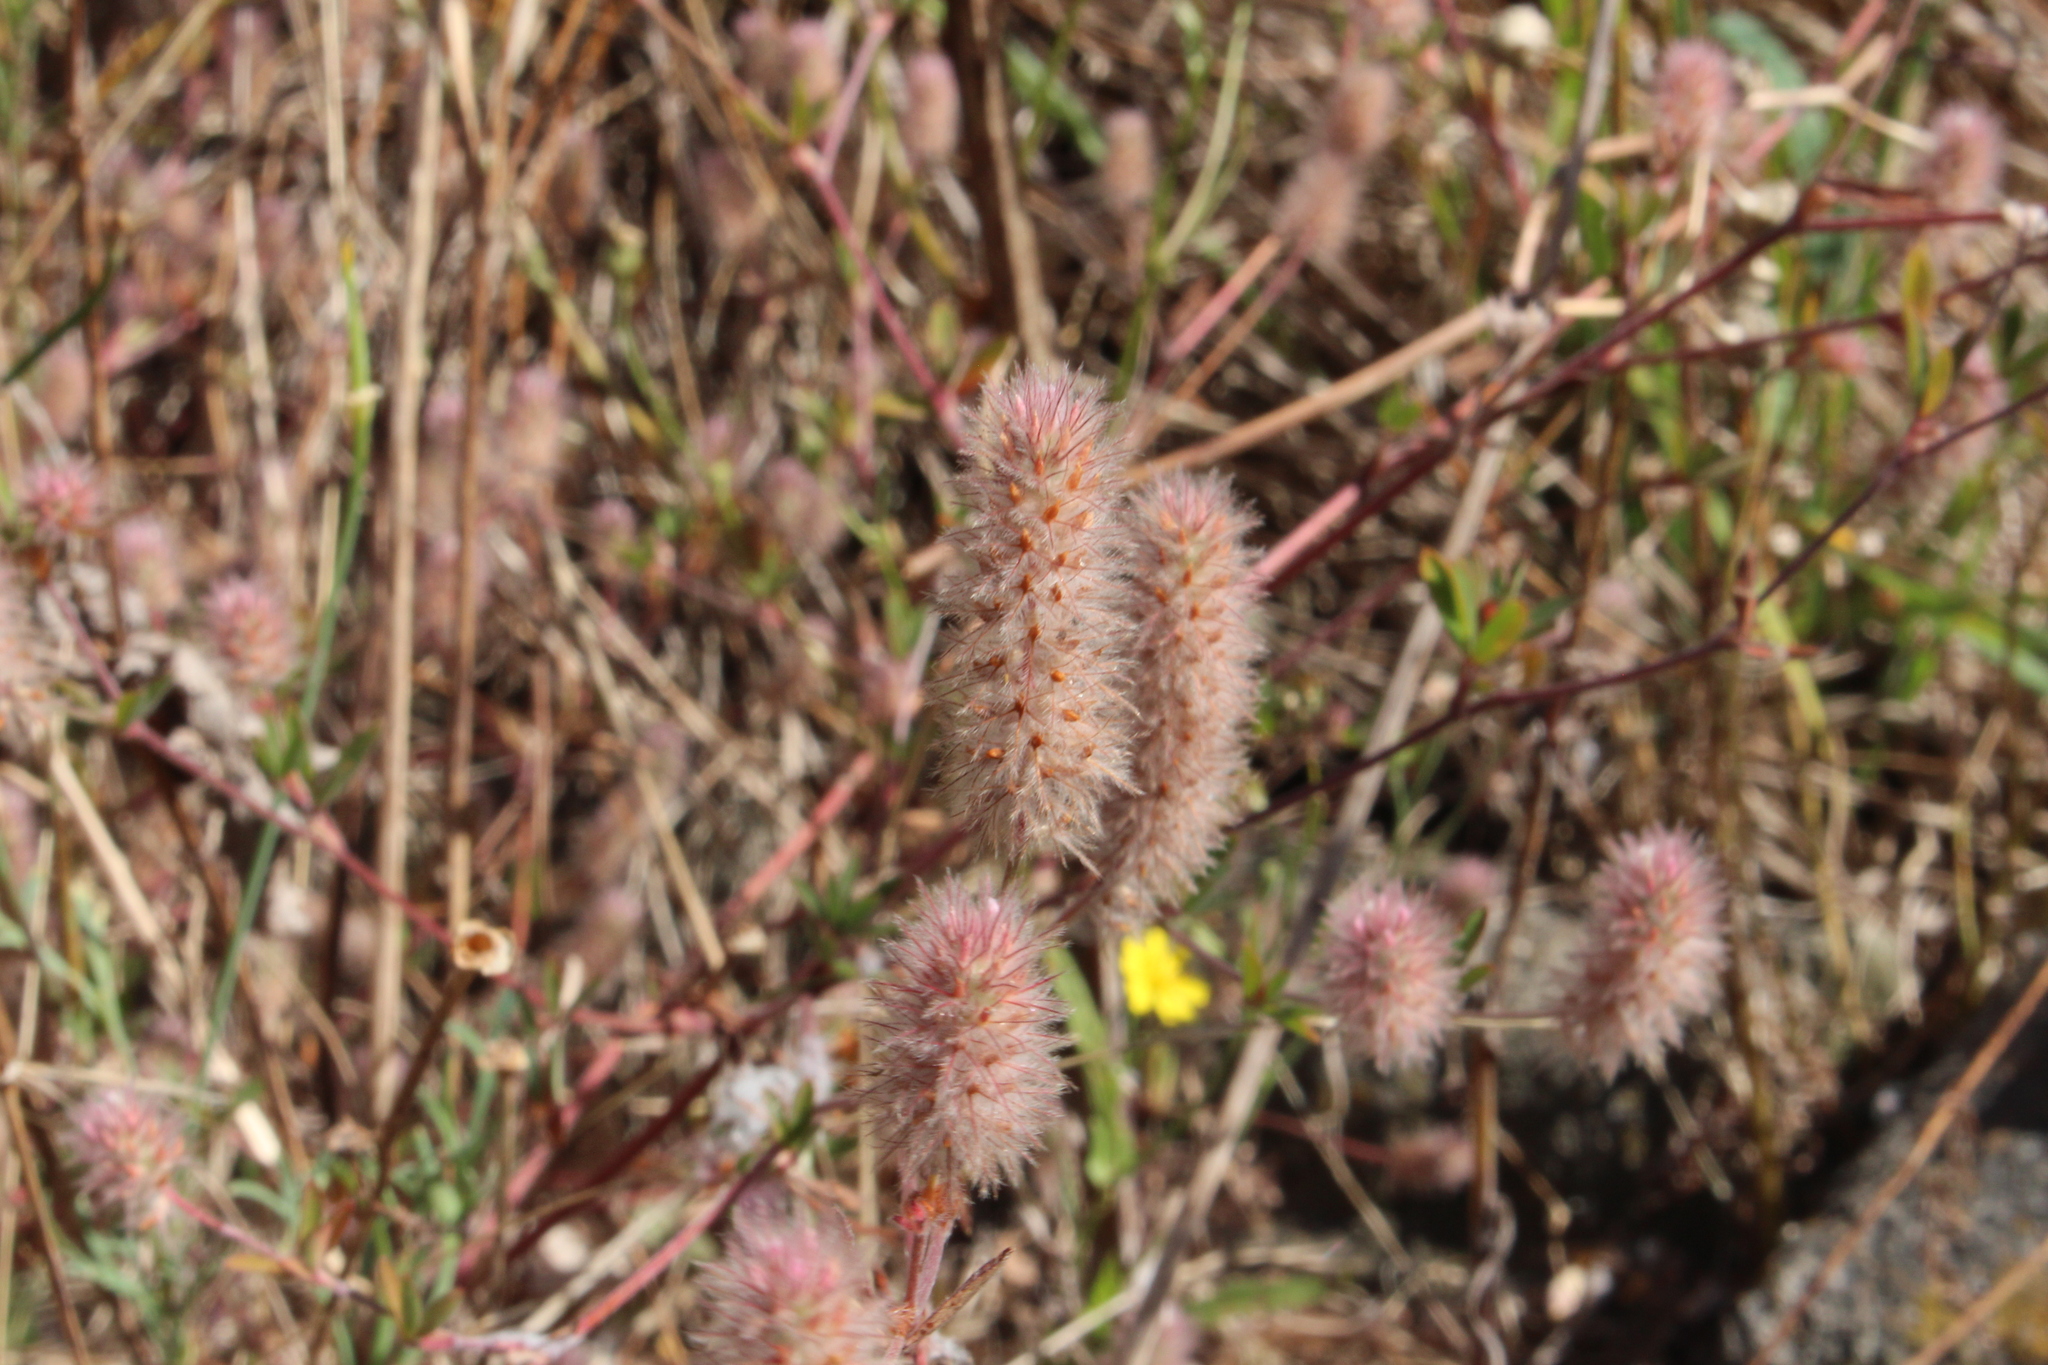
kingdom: Plantae
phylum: Tracheophyta
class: Magnoliopsida
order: Fabales
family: Fabaceae
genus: Trifolium
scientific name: Trifolium arvense
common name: Hare's-foot clover
